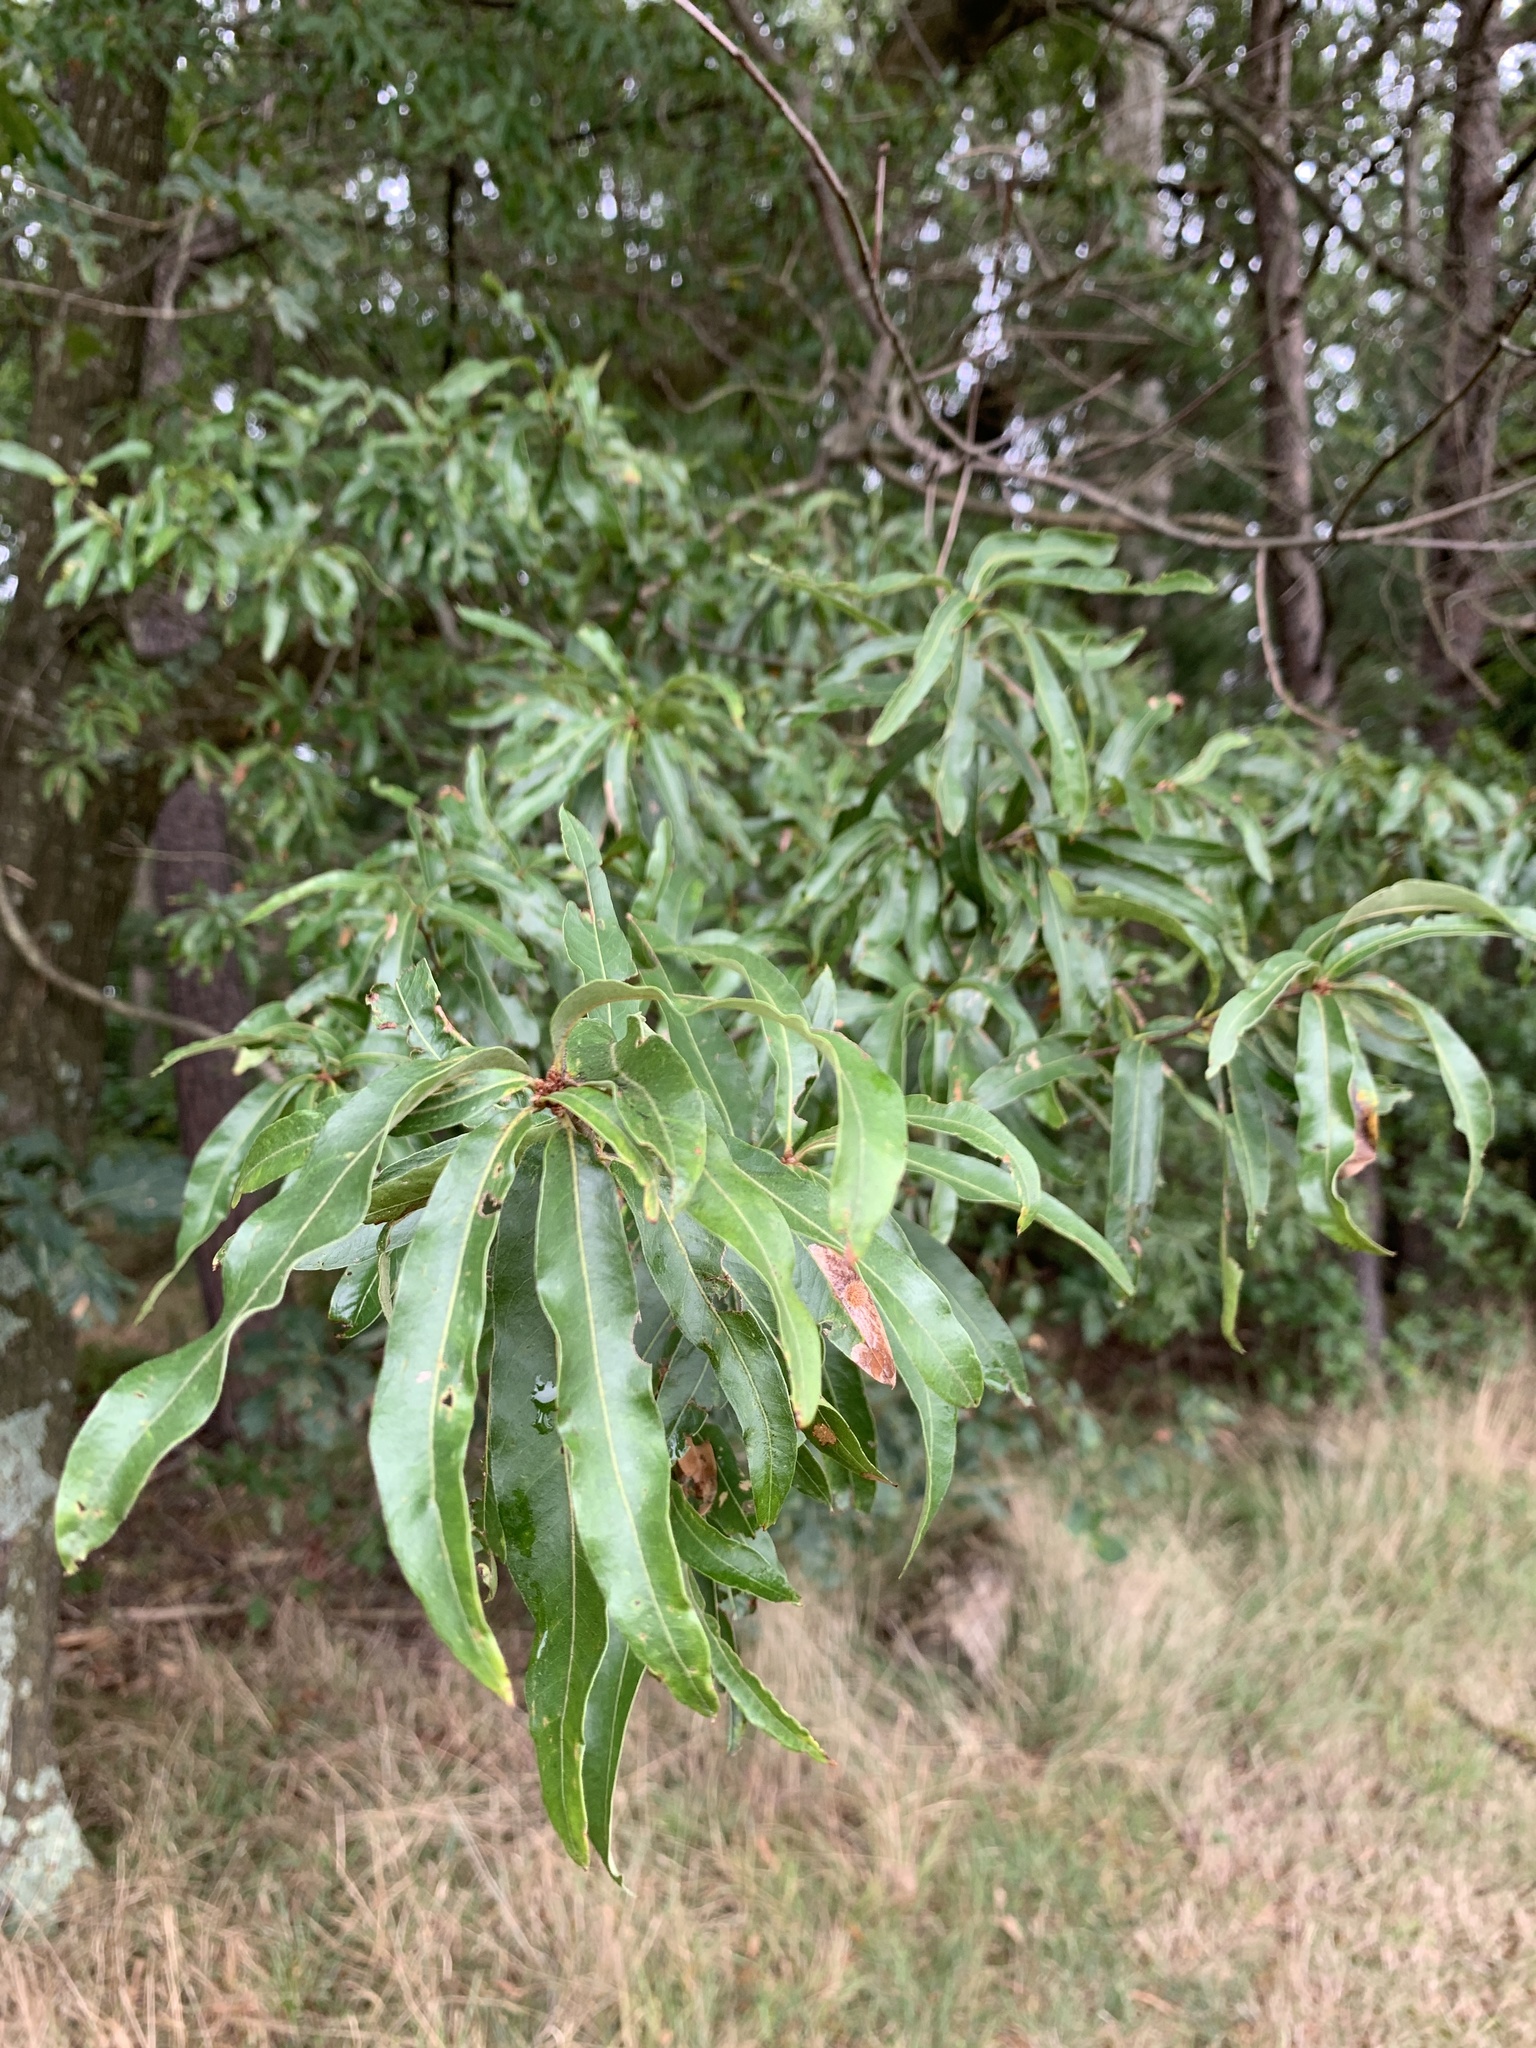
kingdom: Plantae
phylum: Tracheophyta
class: Magnoliopsida
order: Fagales
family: Fagaceae
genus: Quercus
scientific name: Quercus phellos
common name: Willow oak
